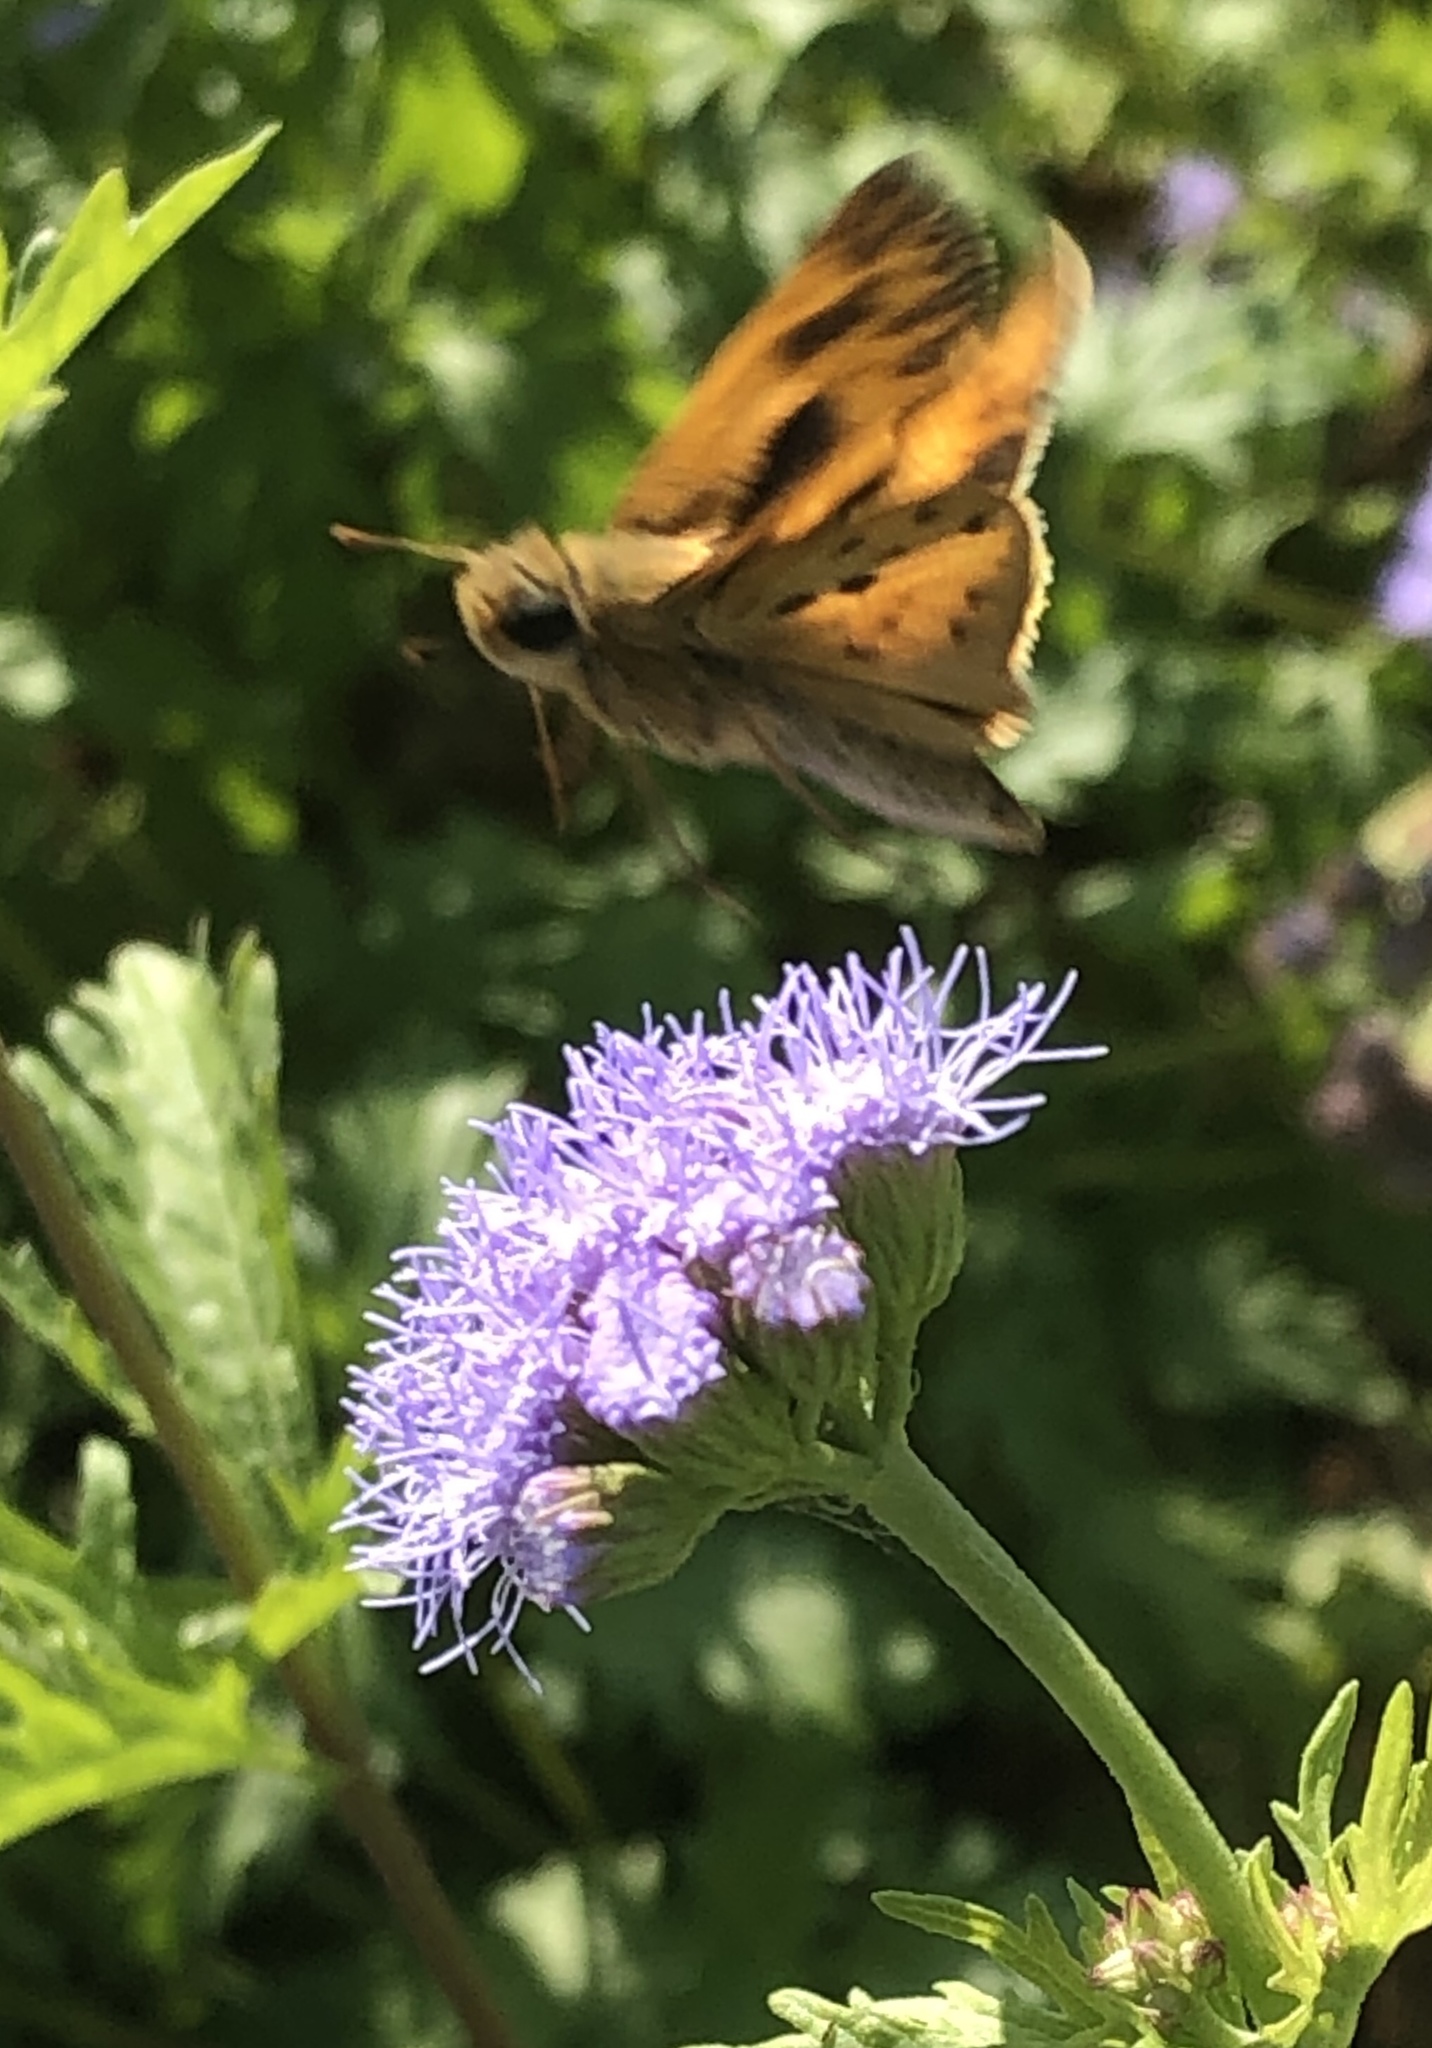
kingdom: Animalia
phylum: Arthropoda
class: Insecta
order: Lepidoptera
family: Hesperiidae
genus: Hylephila
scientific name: Hylephila phyleus
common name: Fiery skipper
